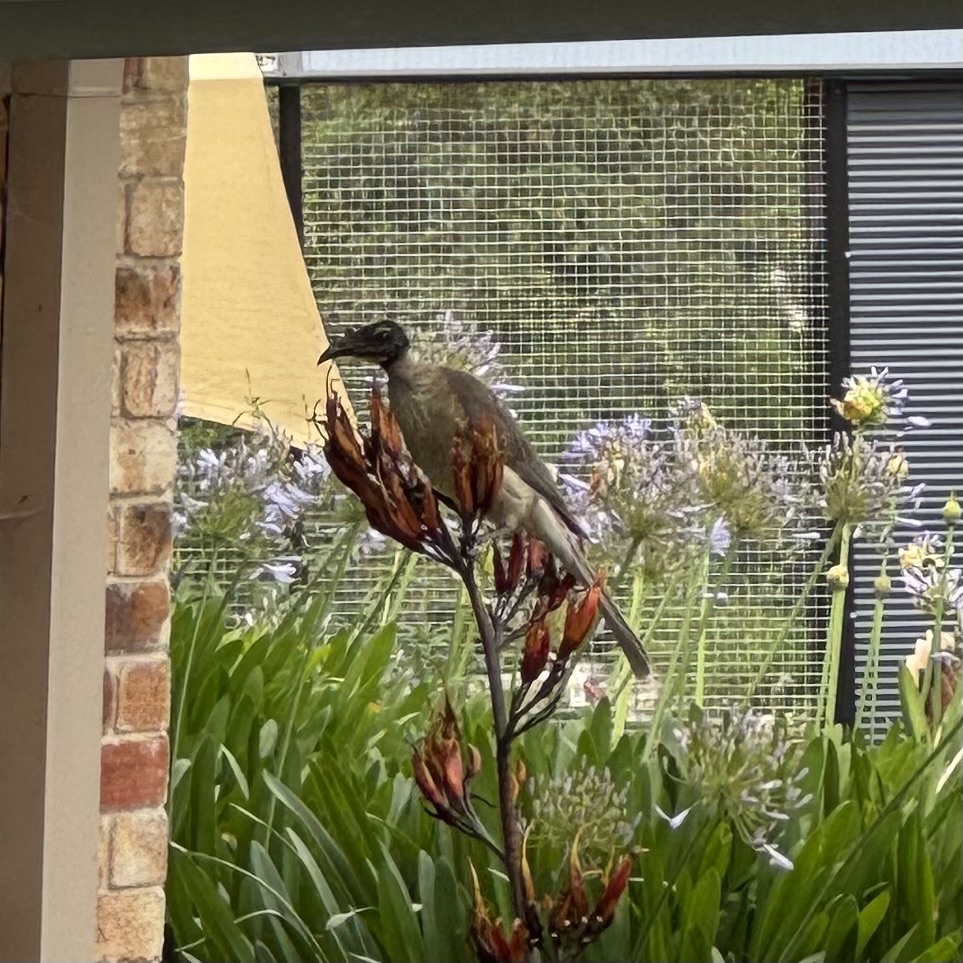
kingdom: Animalia
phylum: Chordata
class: Aves
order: Passeriformes
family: Meliphagidae
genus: Philemon
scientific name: Philemon corniculatus
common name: Noisy friarbird
